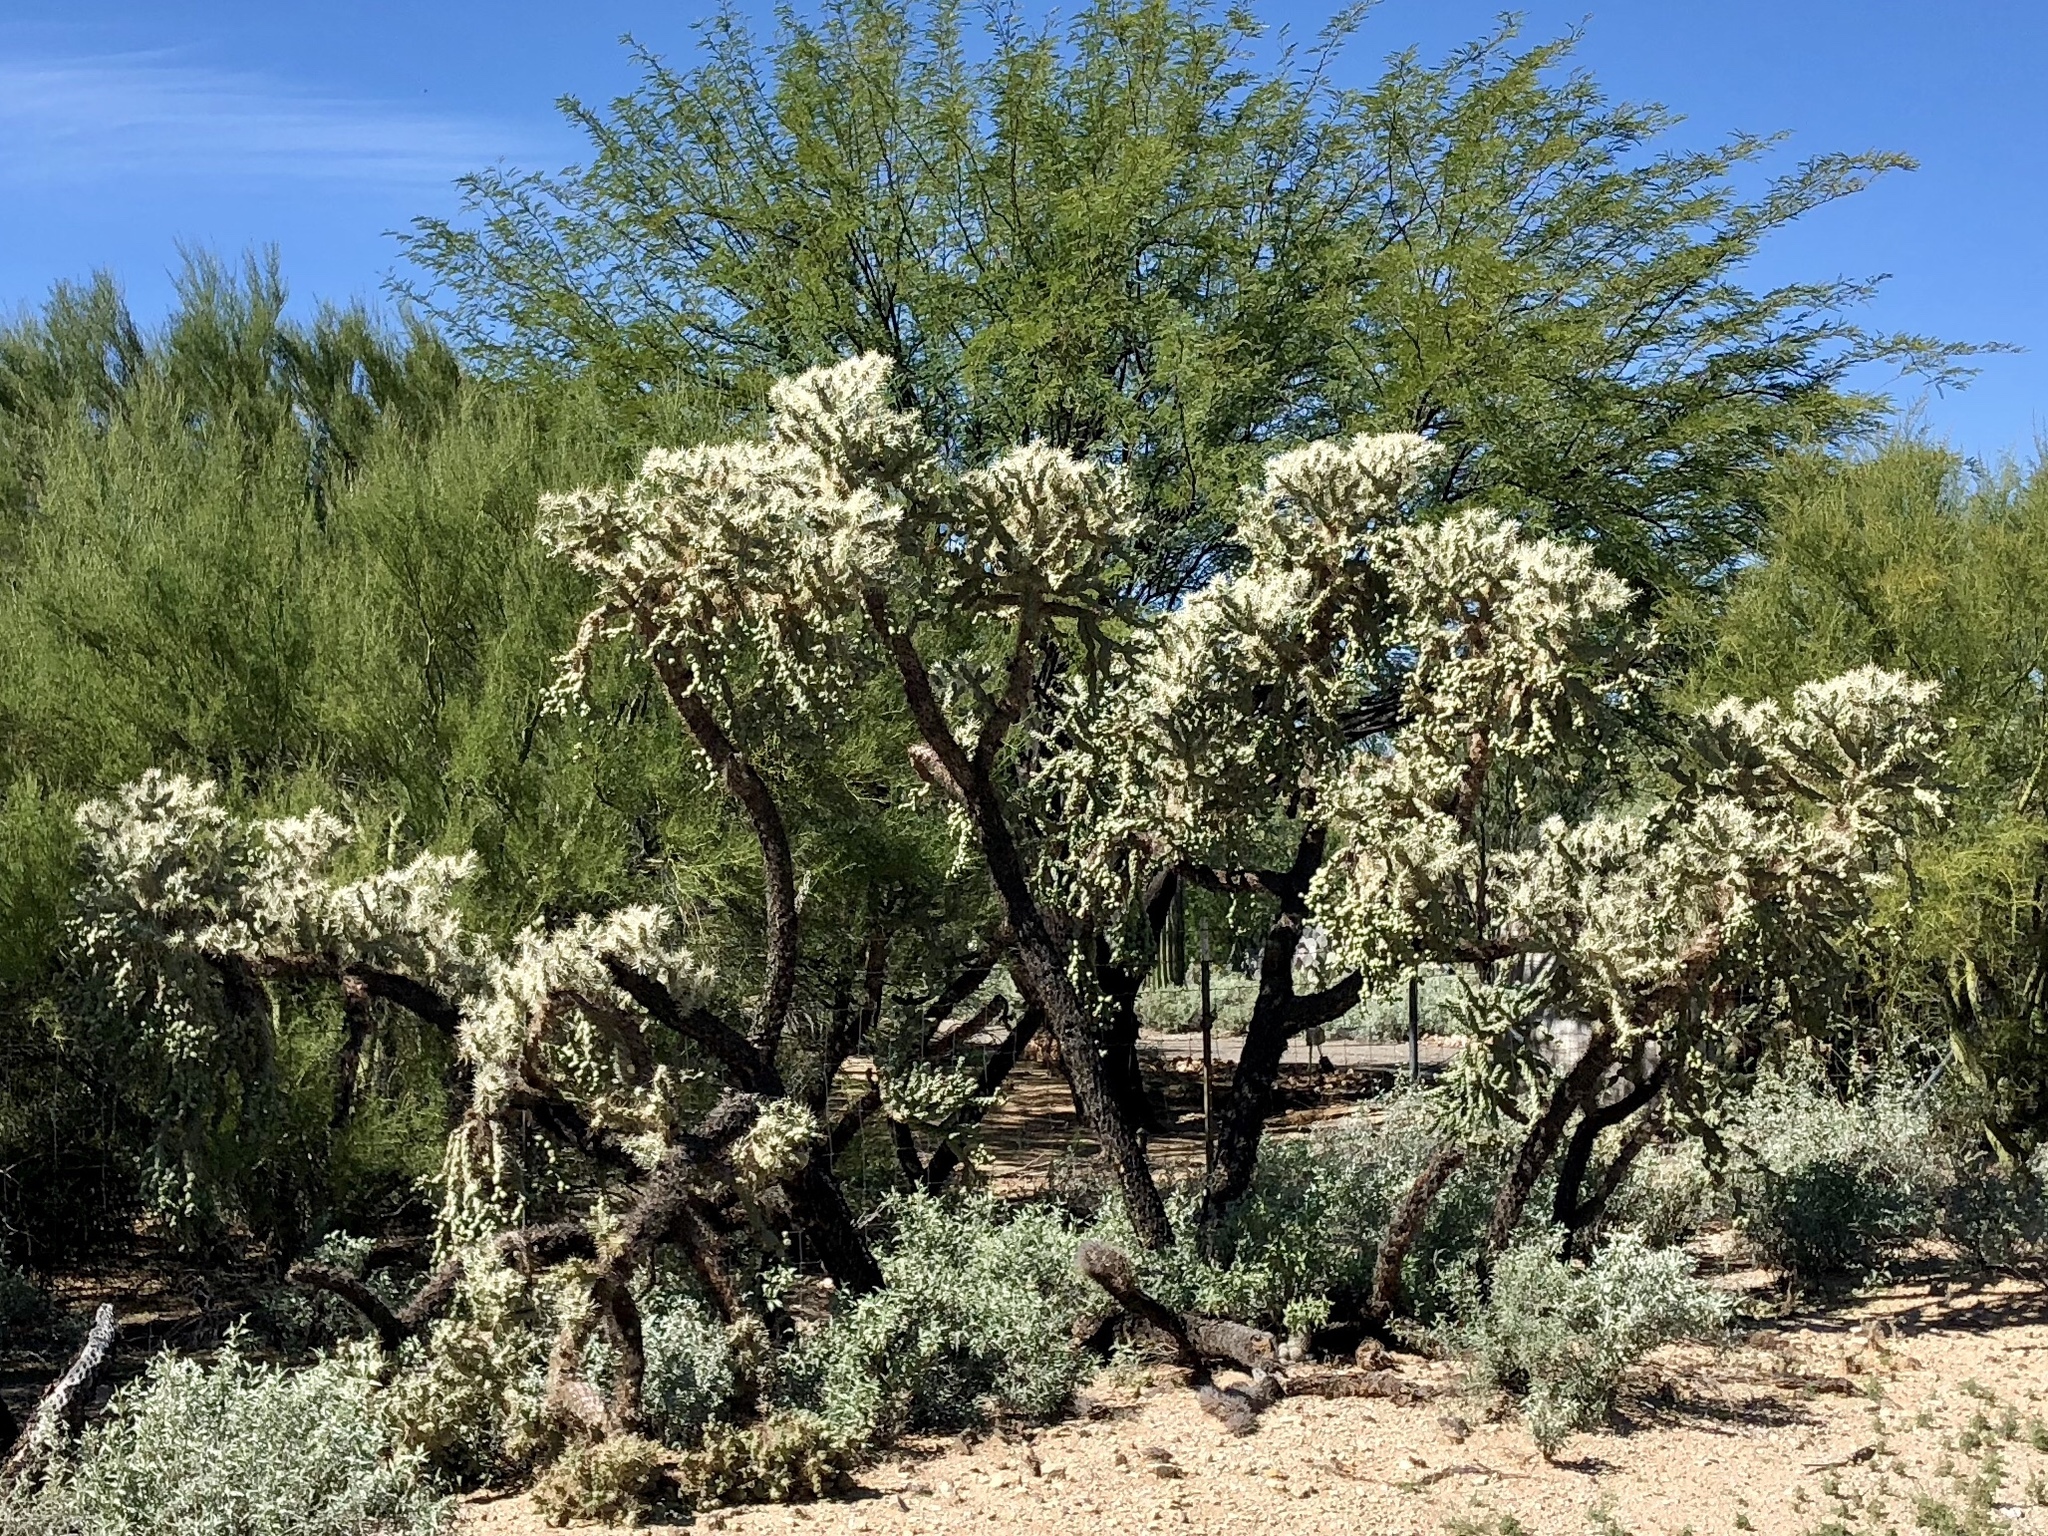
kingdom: Plantae
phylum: Tracheophyta
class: Magnoliopsida
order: Caryophyllales
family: Cactaceae
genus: Cylindropuntia
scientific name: Cylindropuntia fulgida
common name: Jumping cholla
